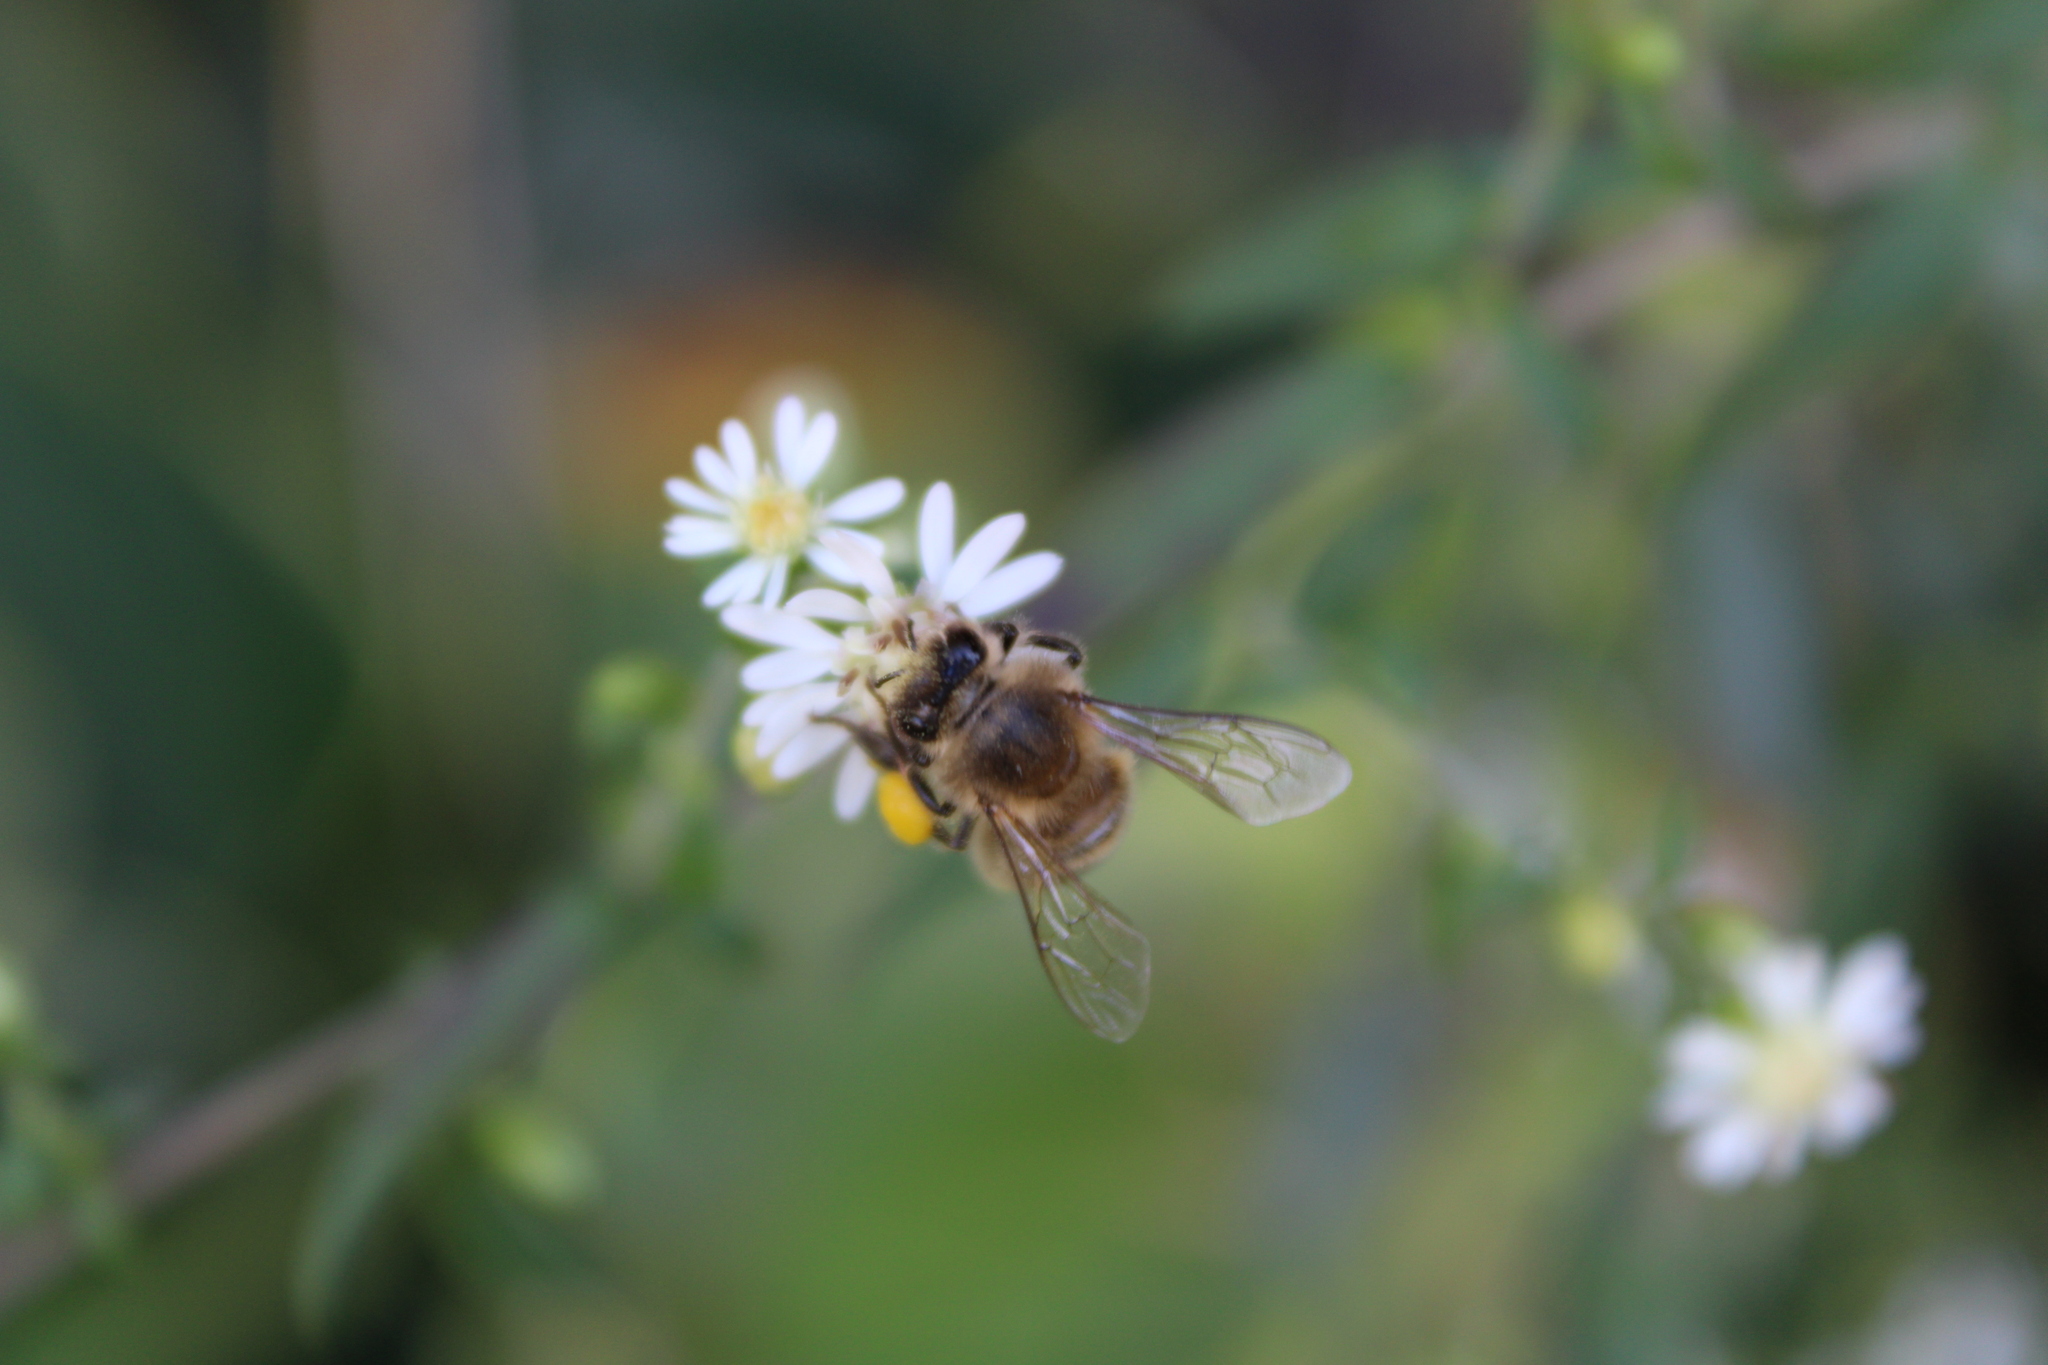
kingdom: Animalia
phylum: Arthropoda
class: Insecta
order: Hymenoptera
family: Apidae
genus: Apis
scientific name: Apis mellifera
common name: Honey bee
